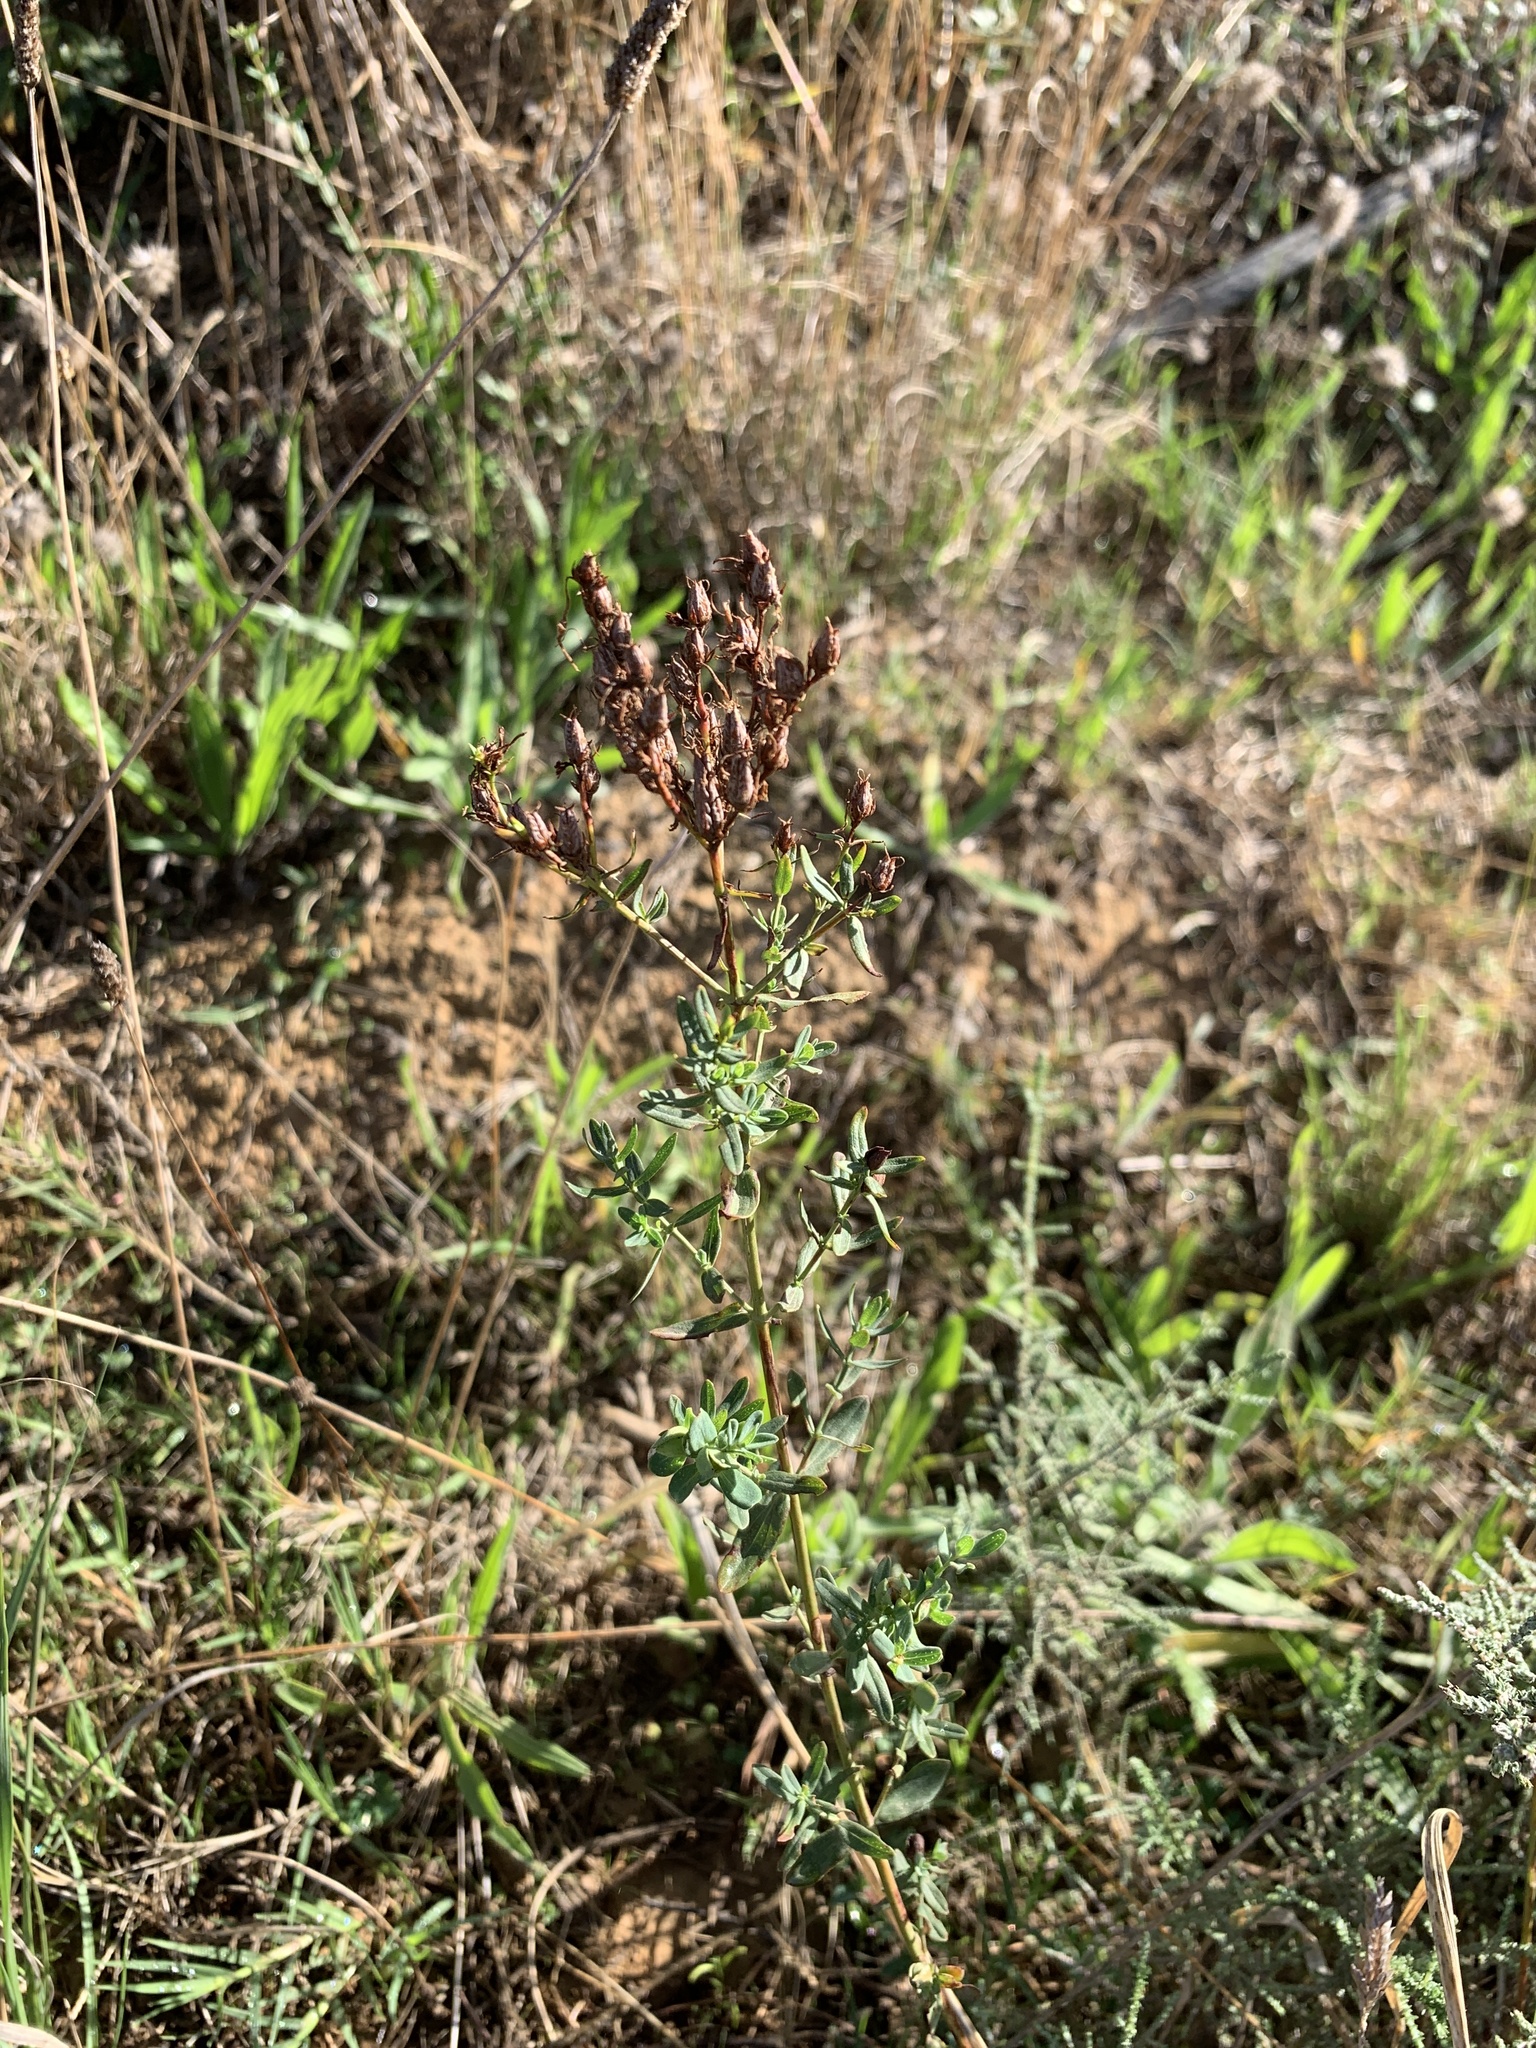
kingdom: Plantae
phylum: Tracheophyta
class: Magnoliopsida
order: Malpighiales
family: Hypericaceae
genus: Hypericum
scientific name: Hypericum perforatum
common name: Common st. johnswort
